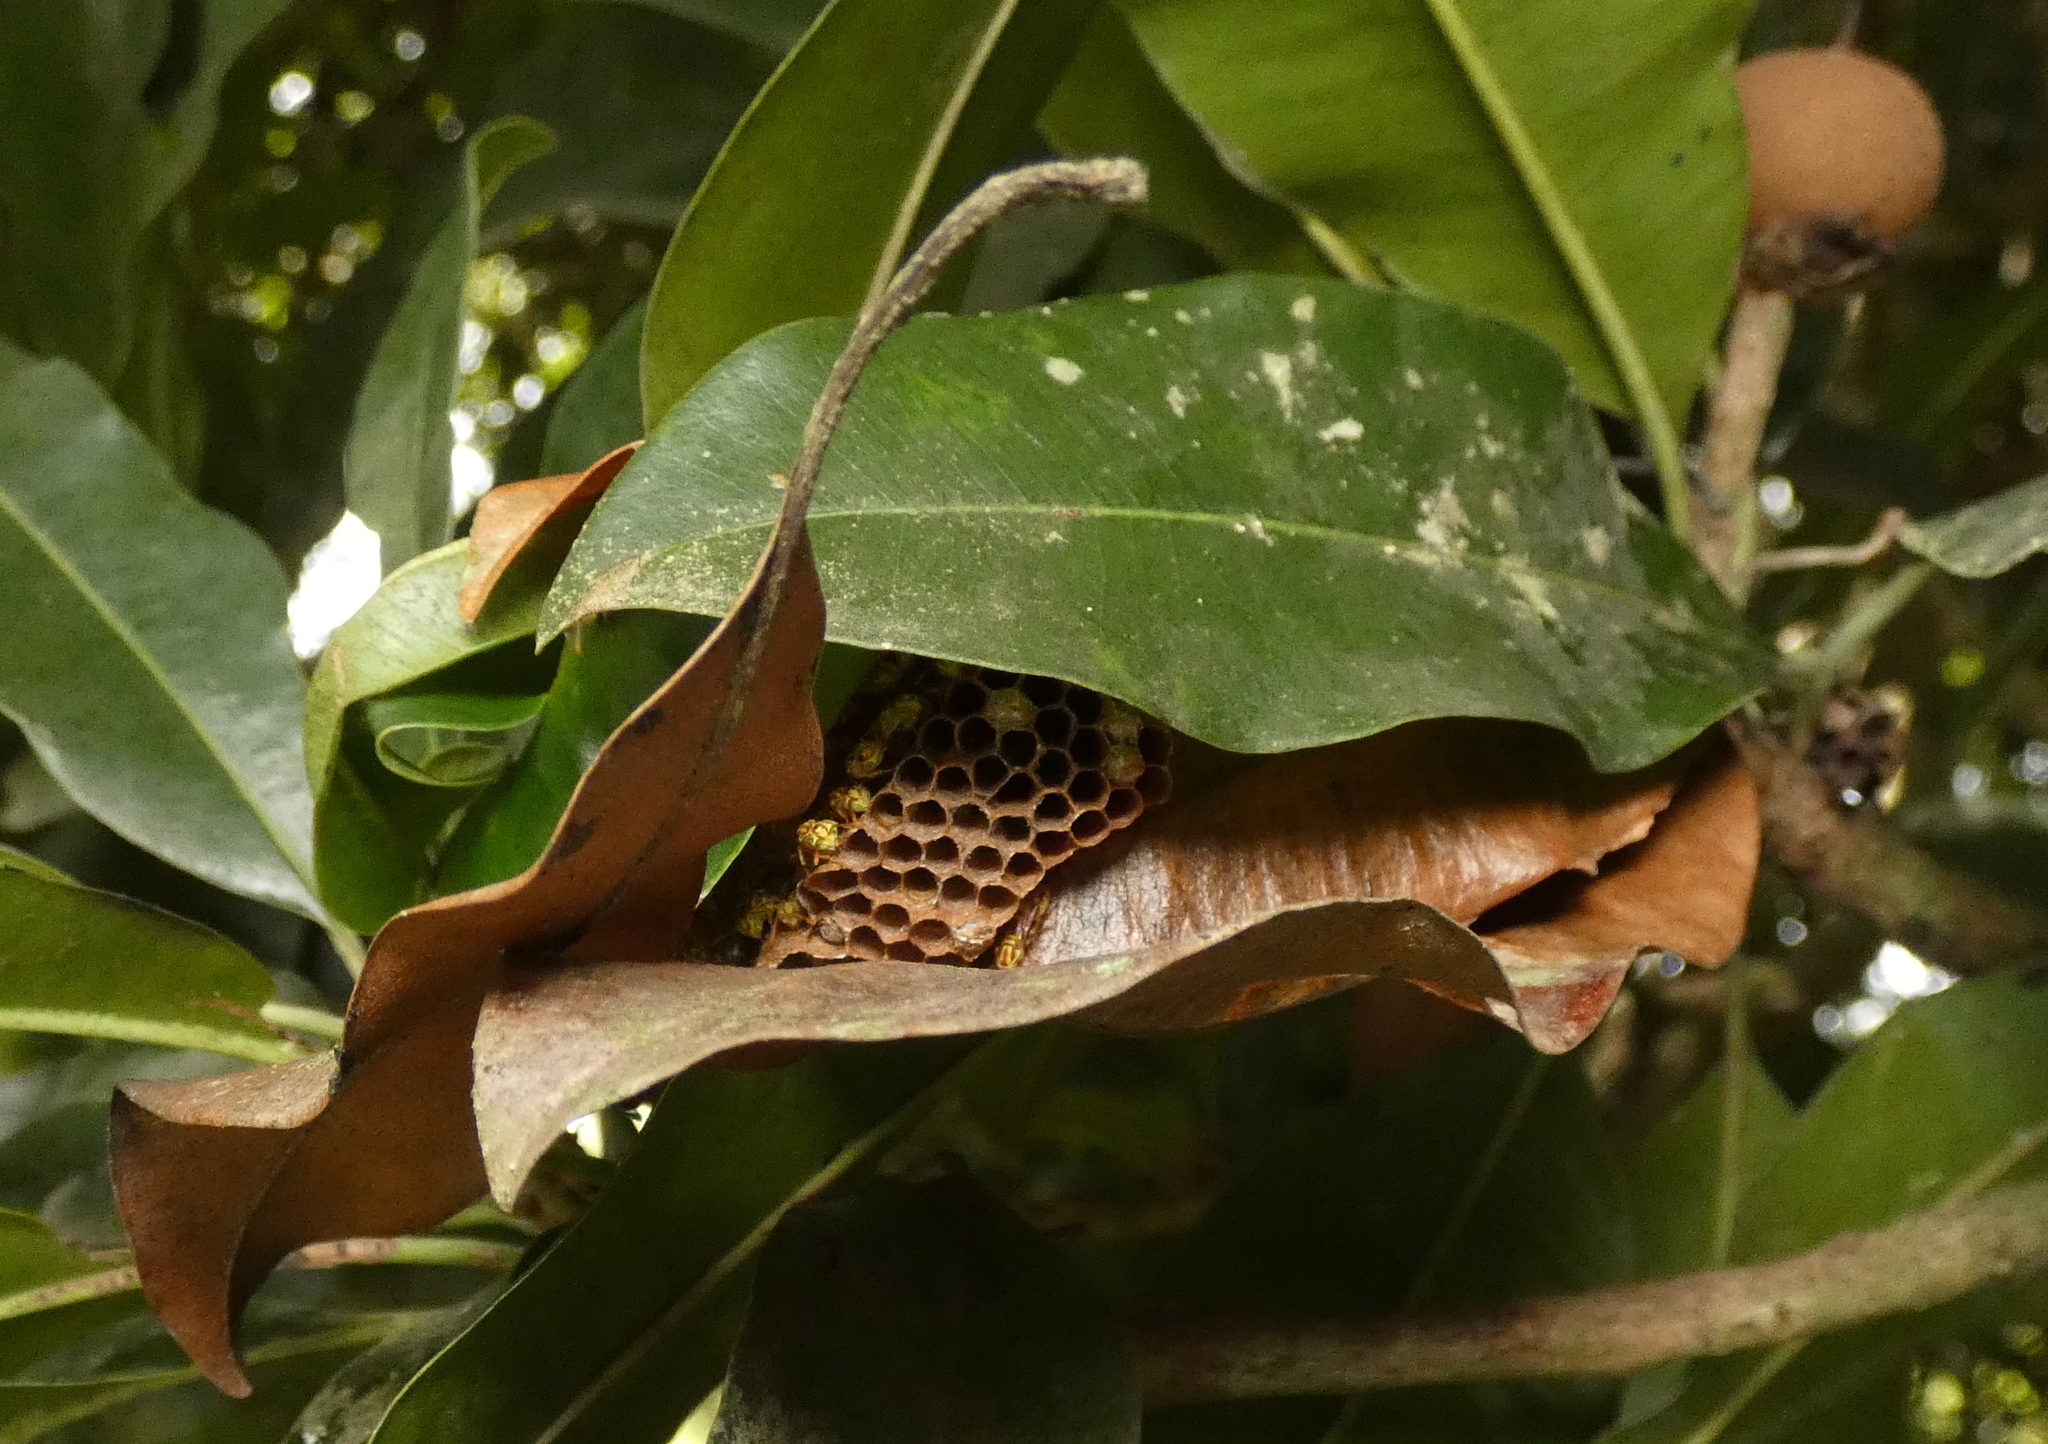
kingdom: Animalia
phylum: Arthropoda
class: Insecta
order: Hymenoptera
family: Vespidae
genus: Protopolybia
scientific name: Protopolybia potiguara
